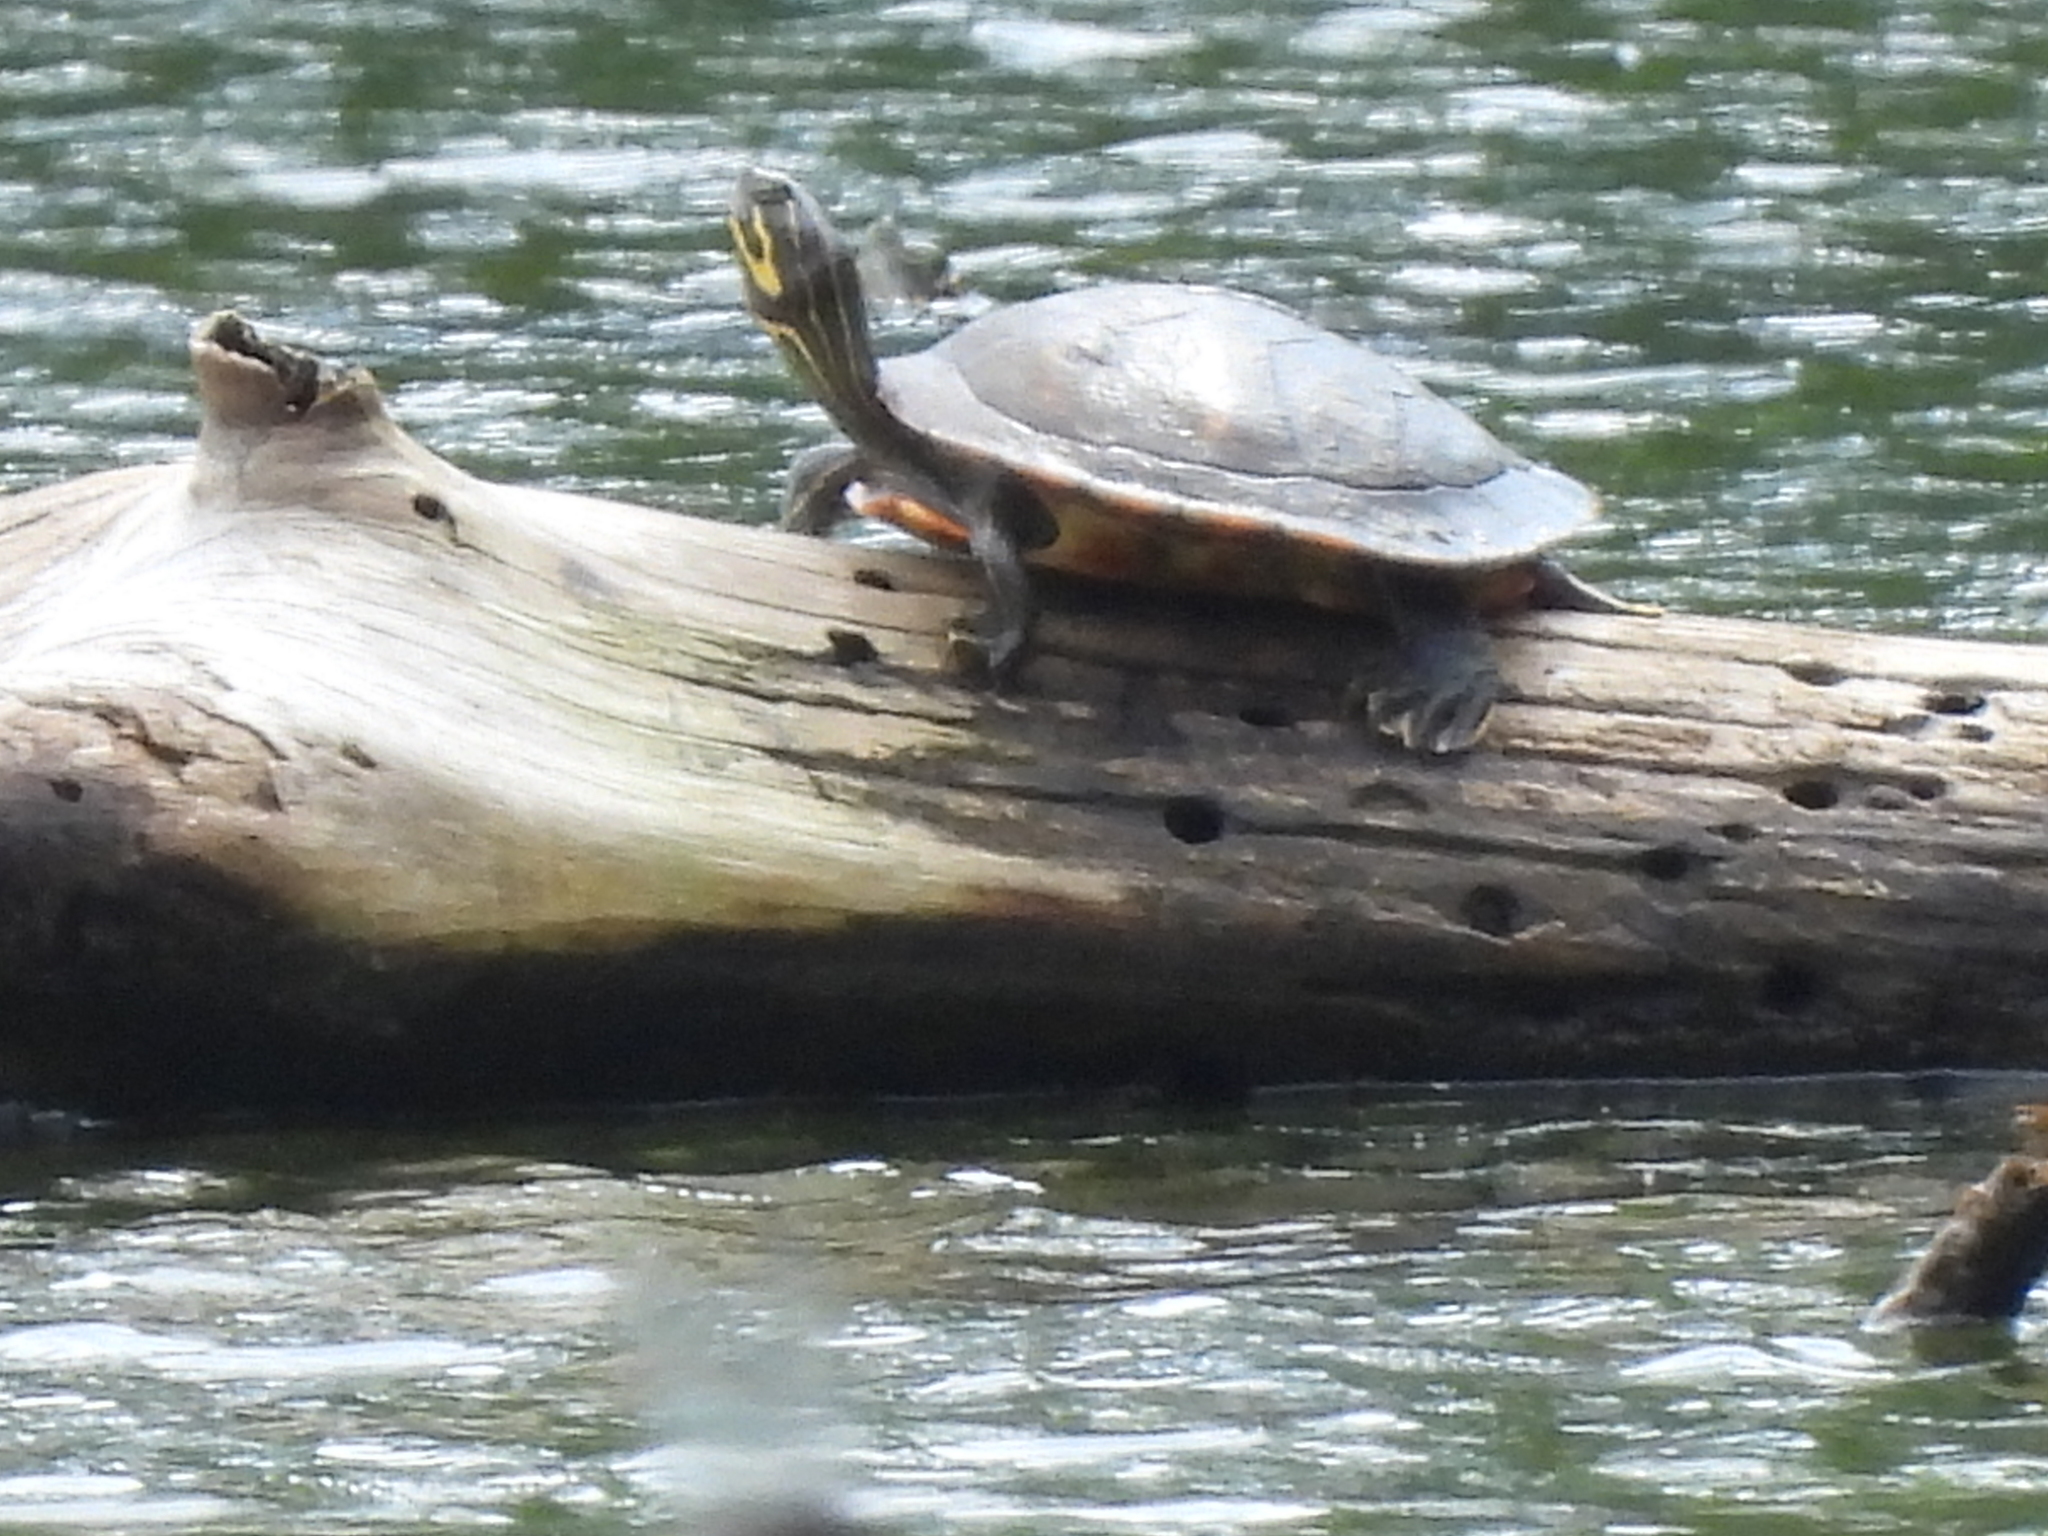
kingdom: Animalia
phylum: Chordata
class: Testudines
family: Emydidae
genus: Pseudemys
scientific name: Pseudemys concinna
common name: Eastern river cooter
